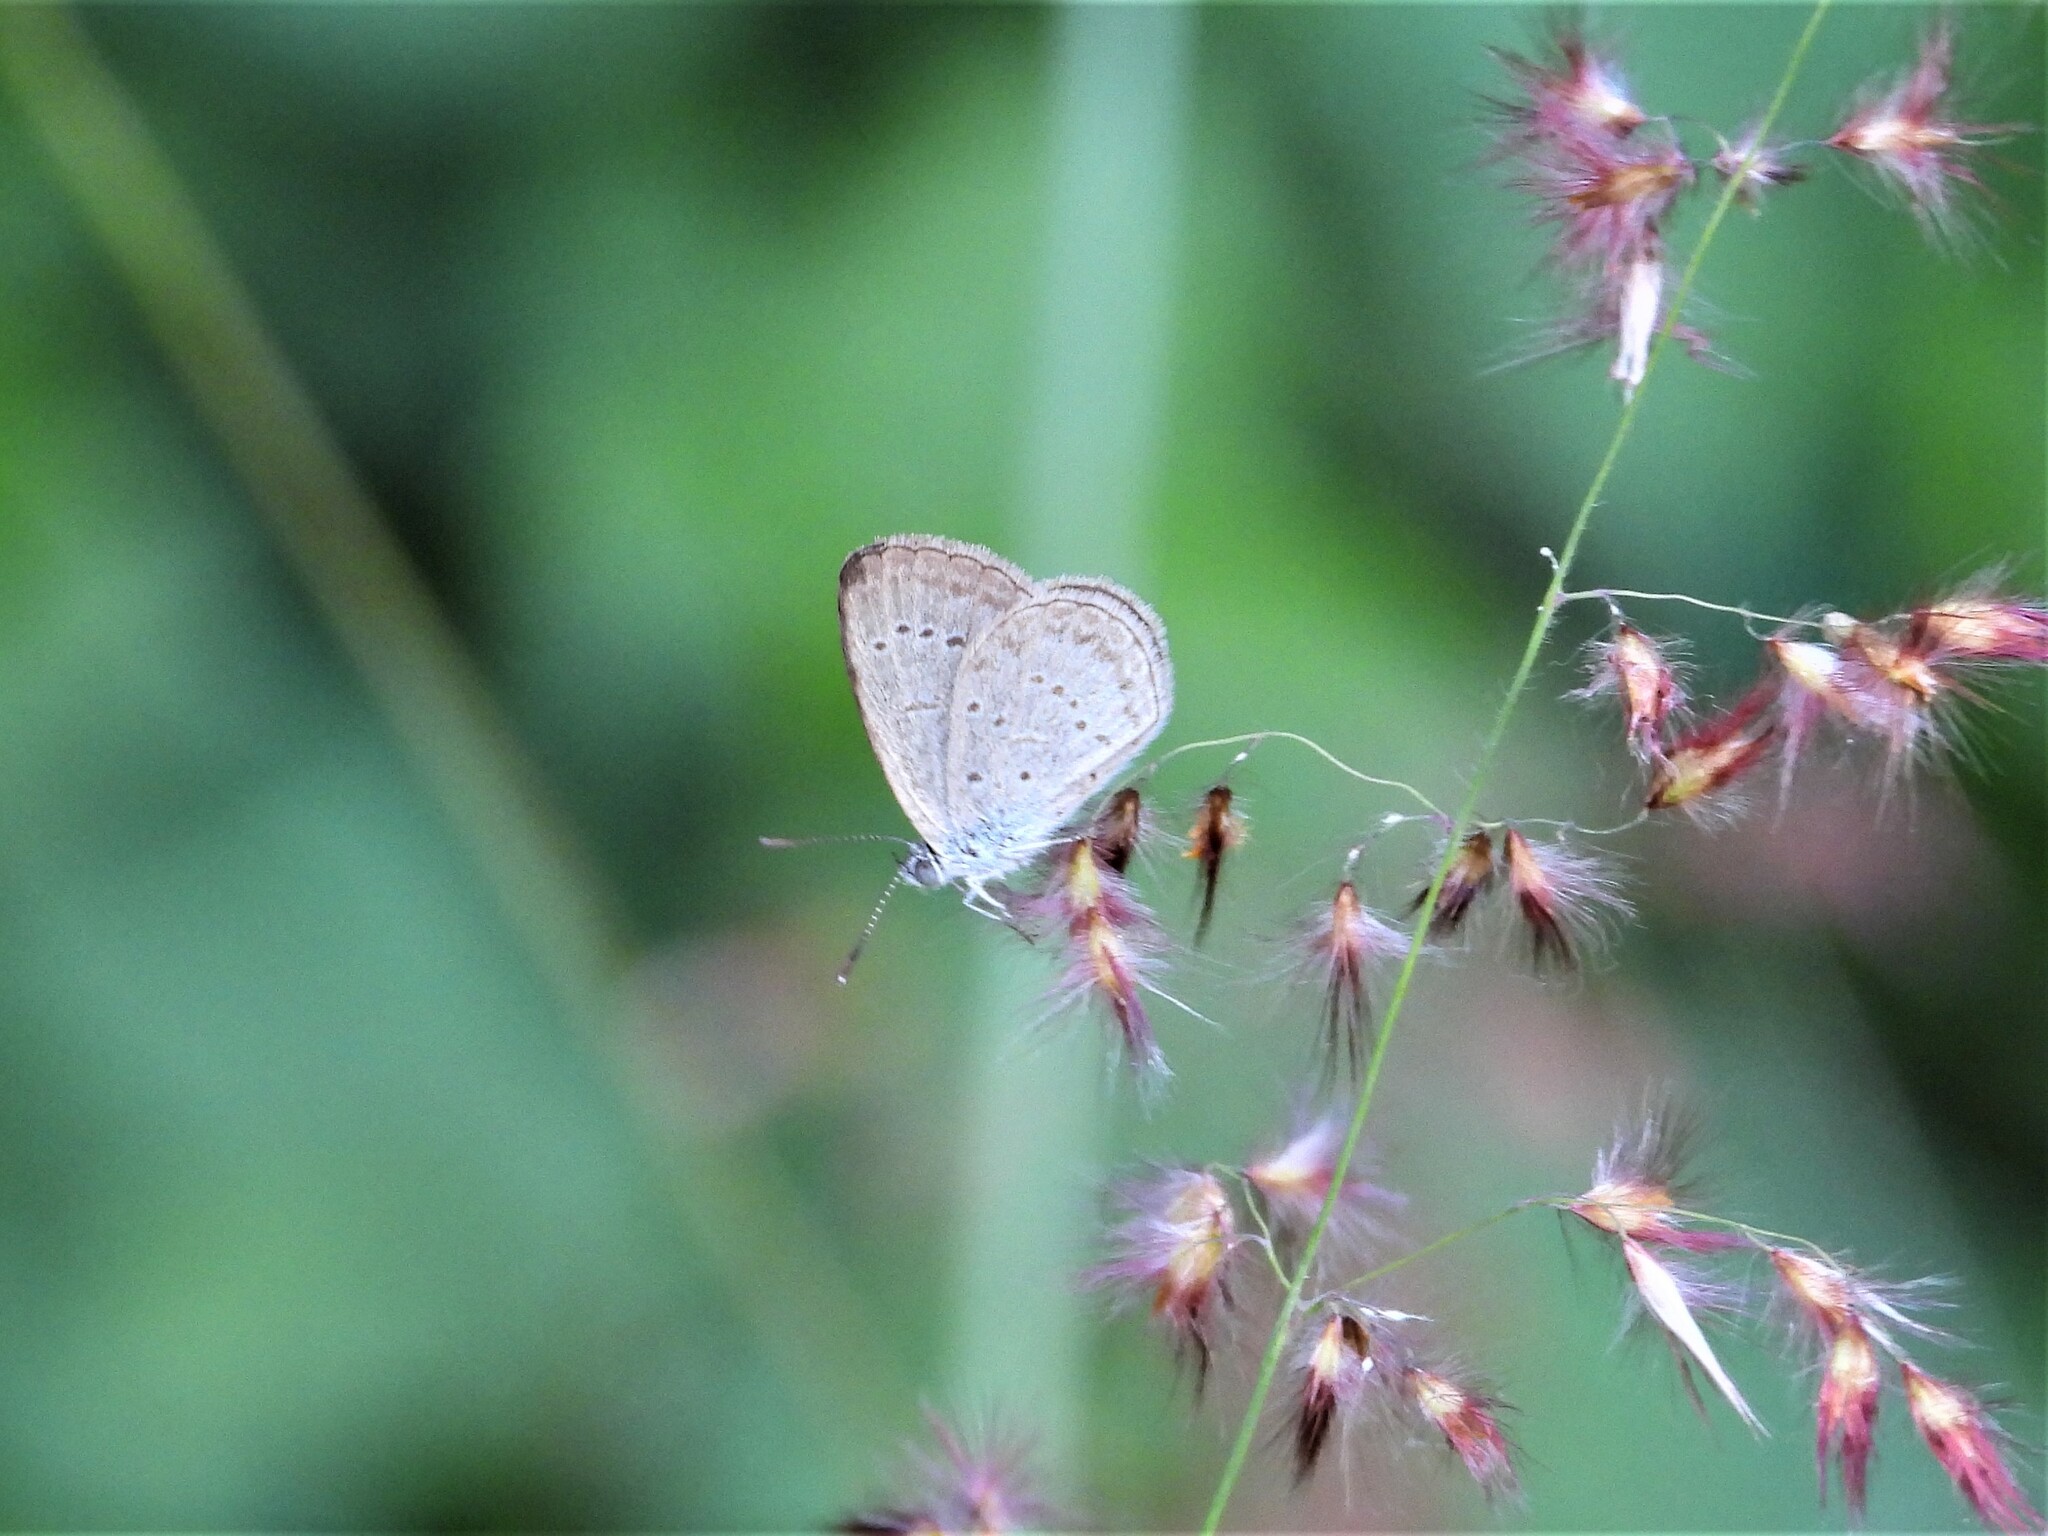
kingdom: Animalia
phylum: Arthropoda
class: Insecta
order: Lepidoptera
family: Lycaenidae
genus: Zizina
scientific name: Zizina otis
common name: Lesser grass blue
